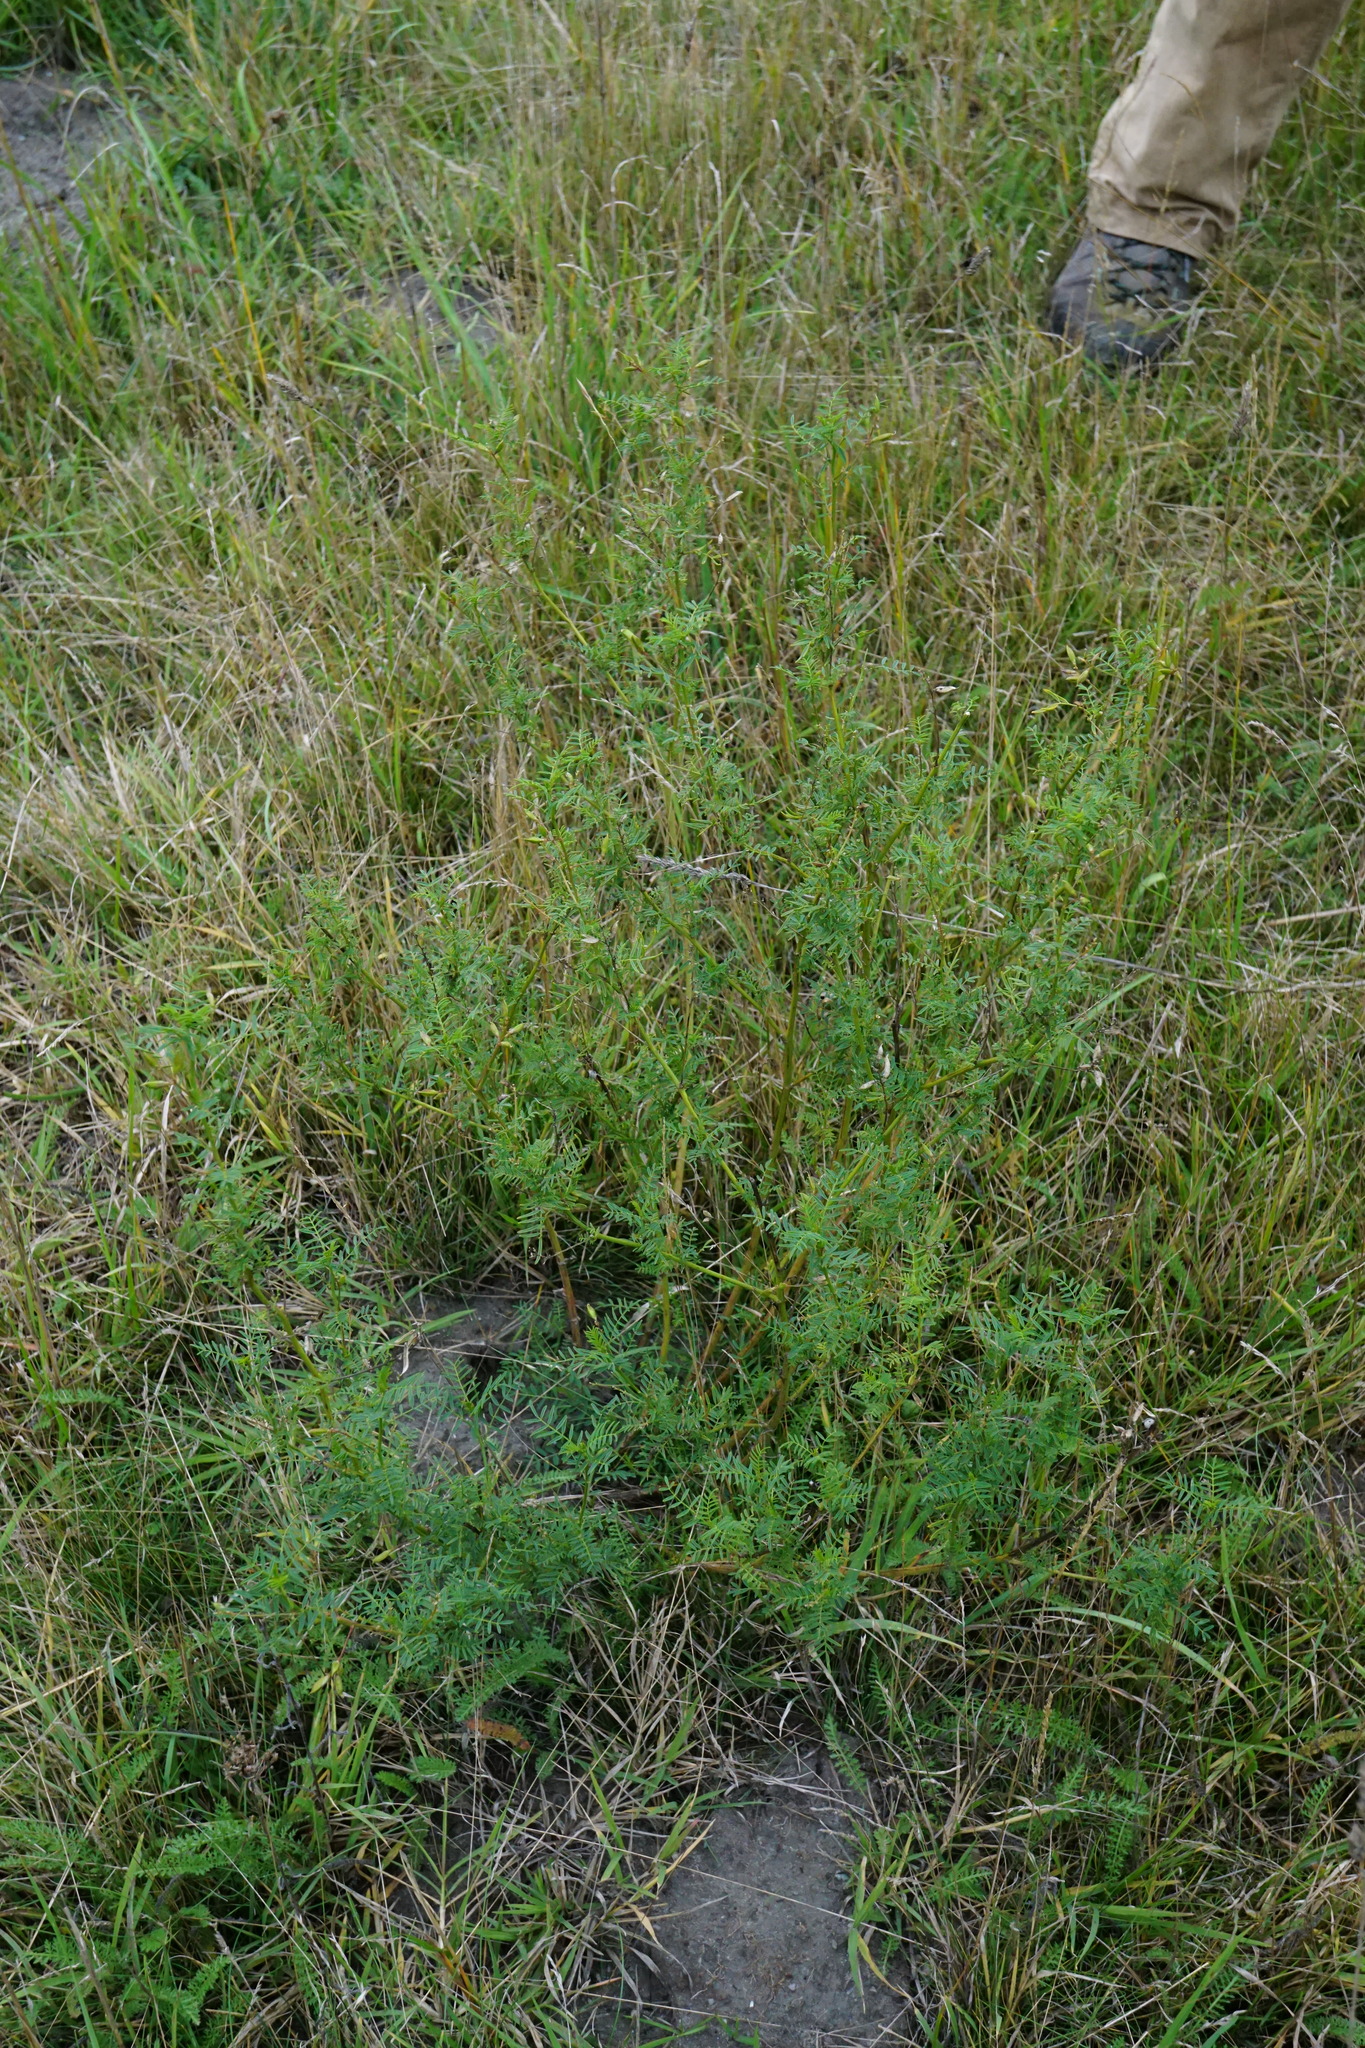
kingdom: Plantae
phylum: Tracheophyta
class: Magnoliopsida
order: Fabales
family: Fabaceae
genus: Astragalus
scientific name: Astragalus sulcatus
